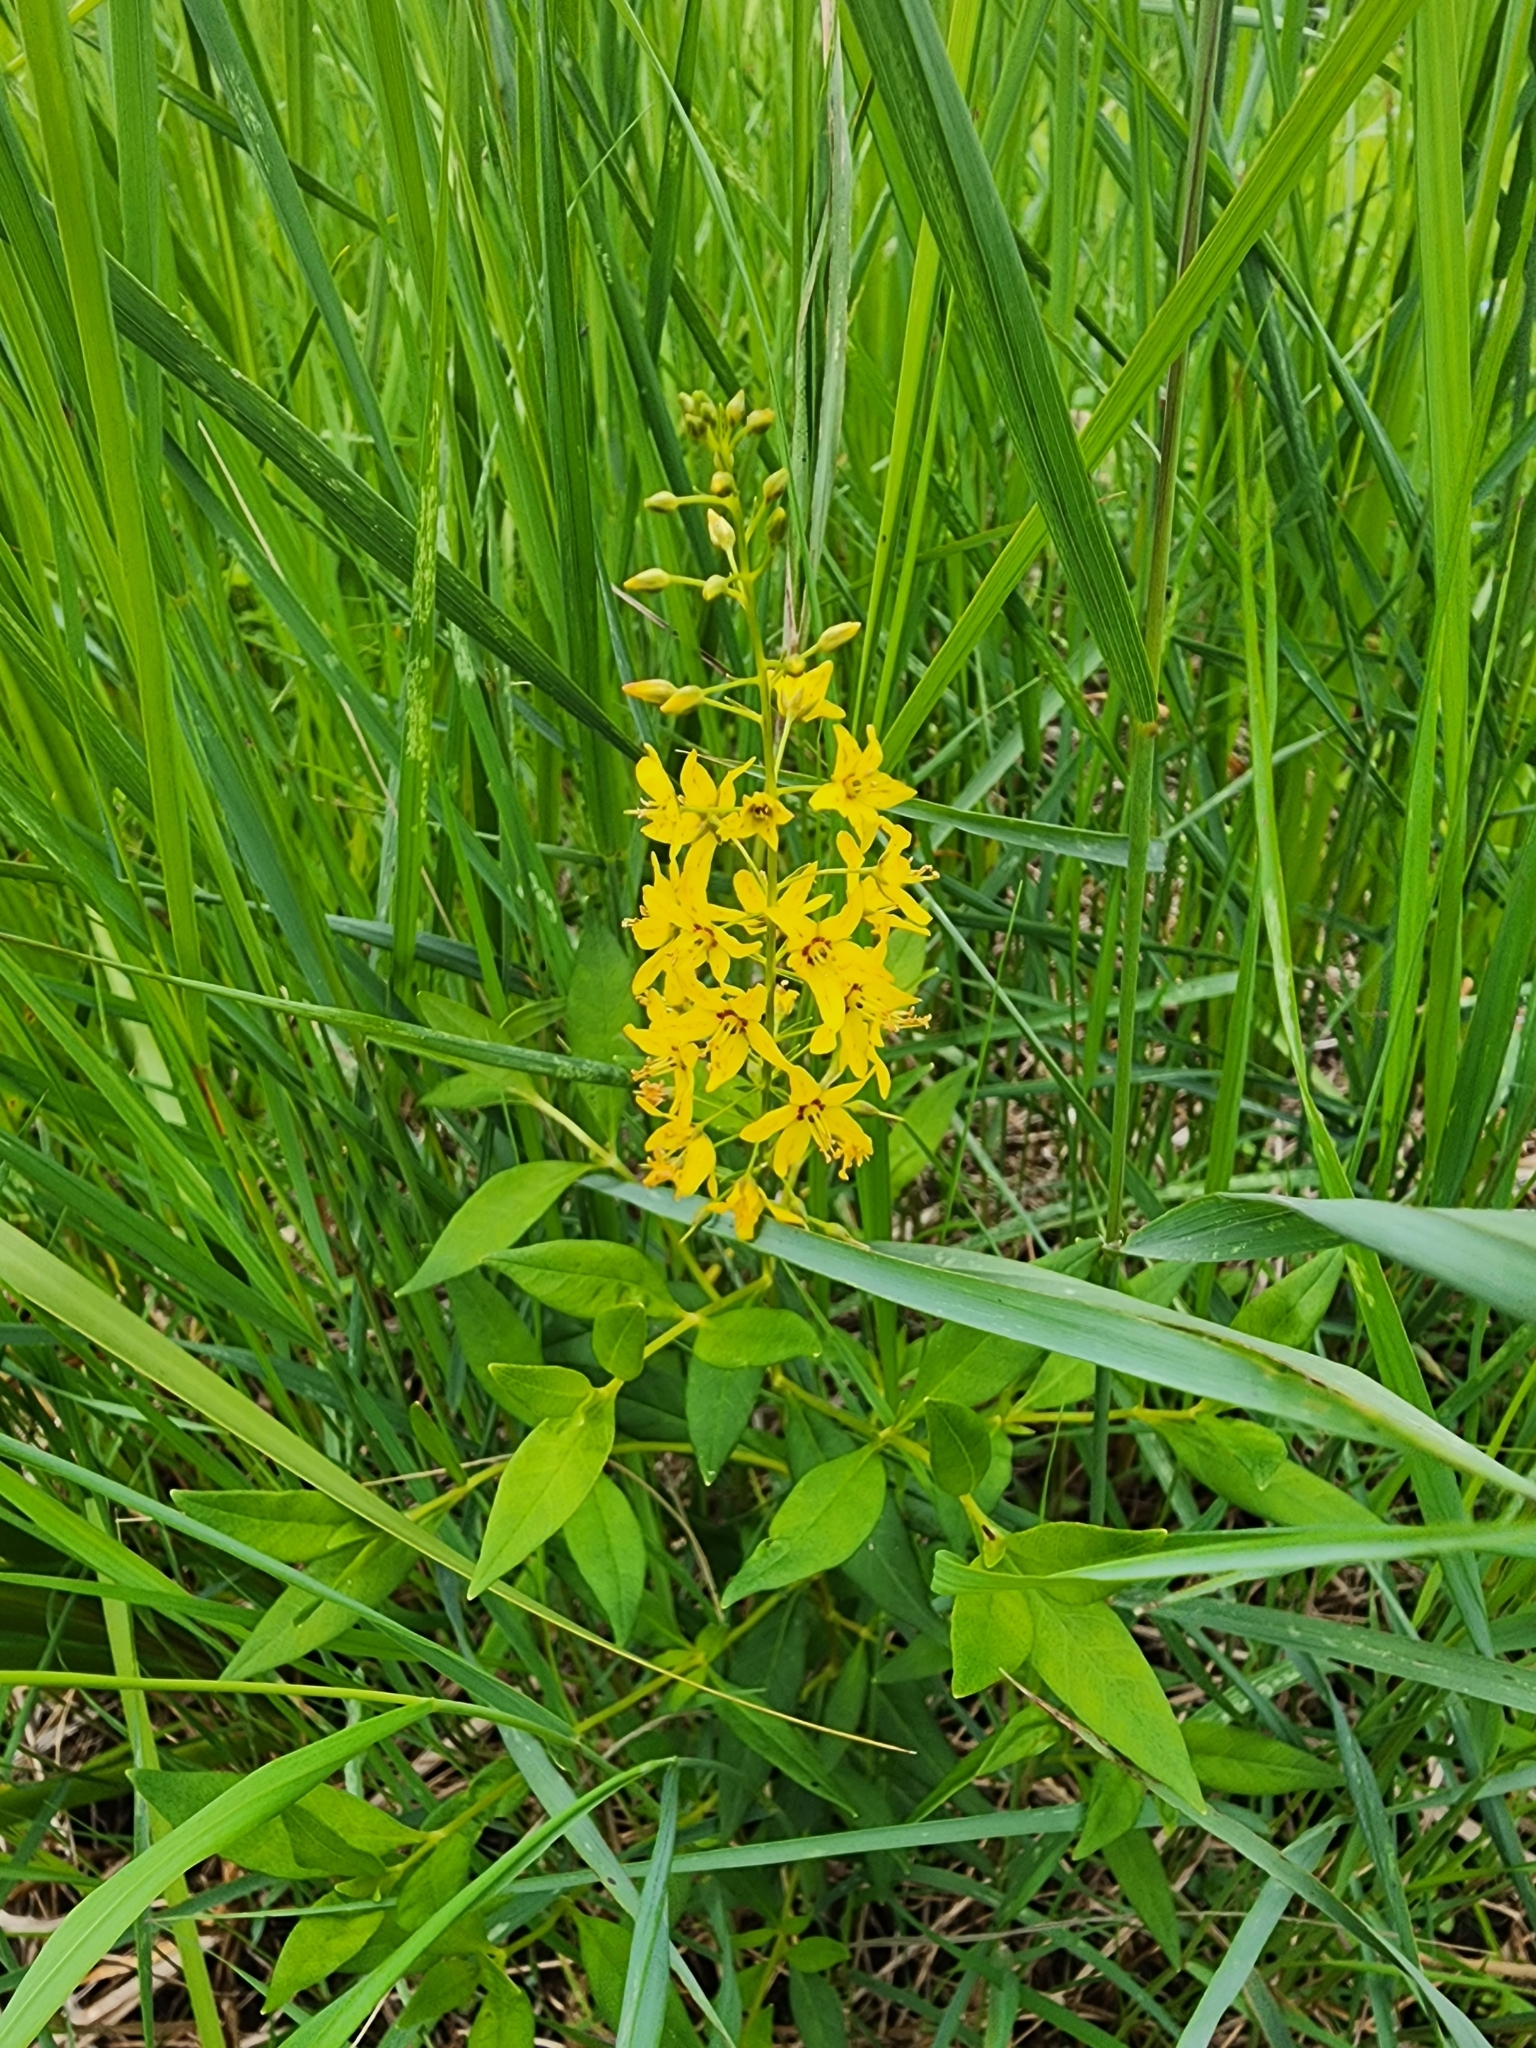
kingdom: Plantae
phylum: Tracheophyta
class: Magnoliopsida
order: Ericales
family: Primulaceae
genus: Lysimachia
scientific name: Lysimachia terrestris
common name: Lake loosestrife
